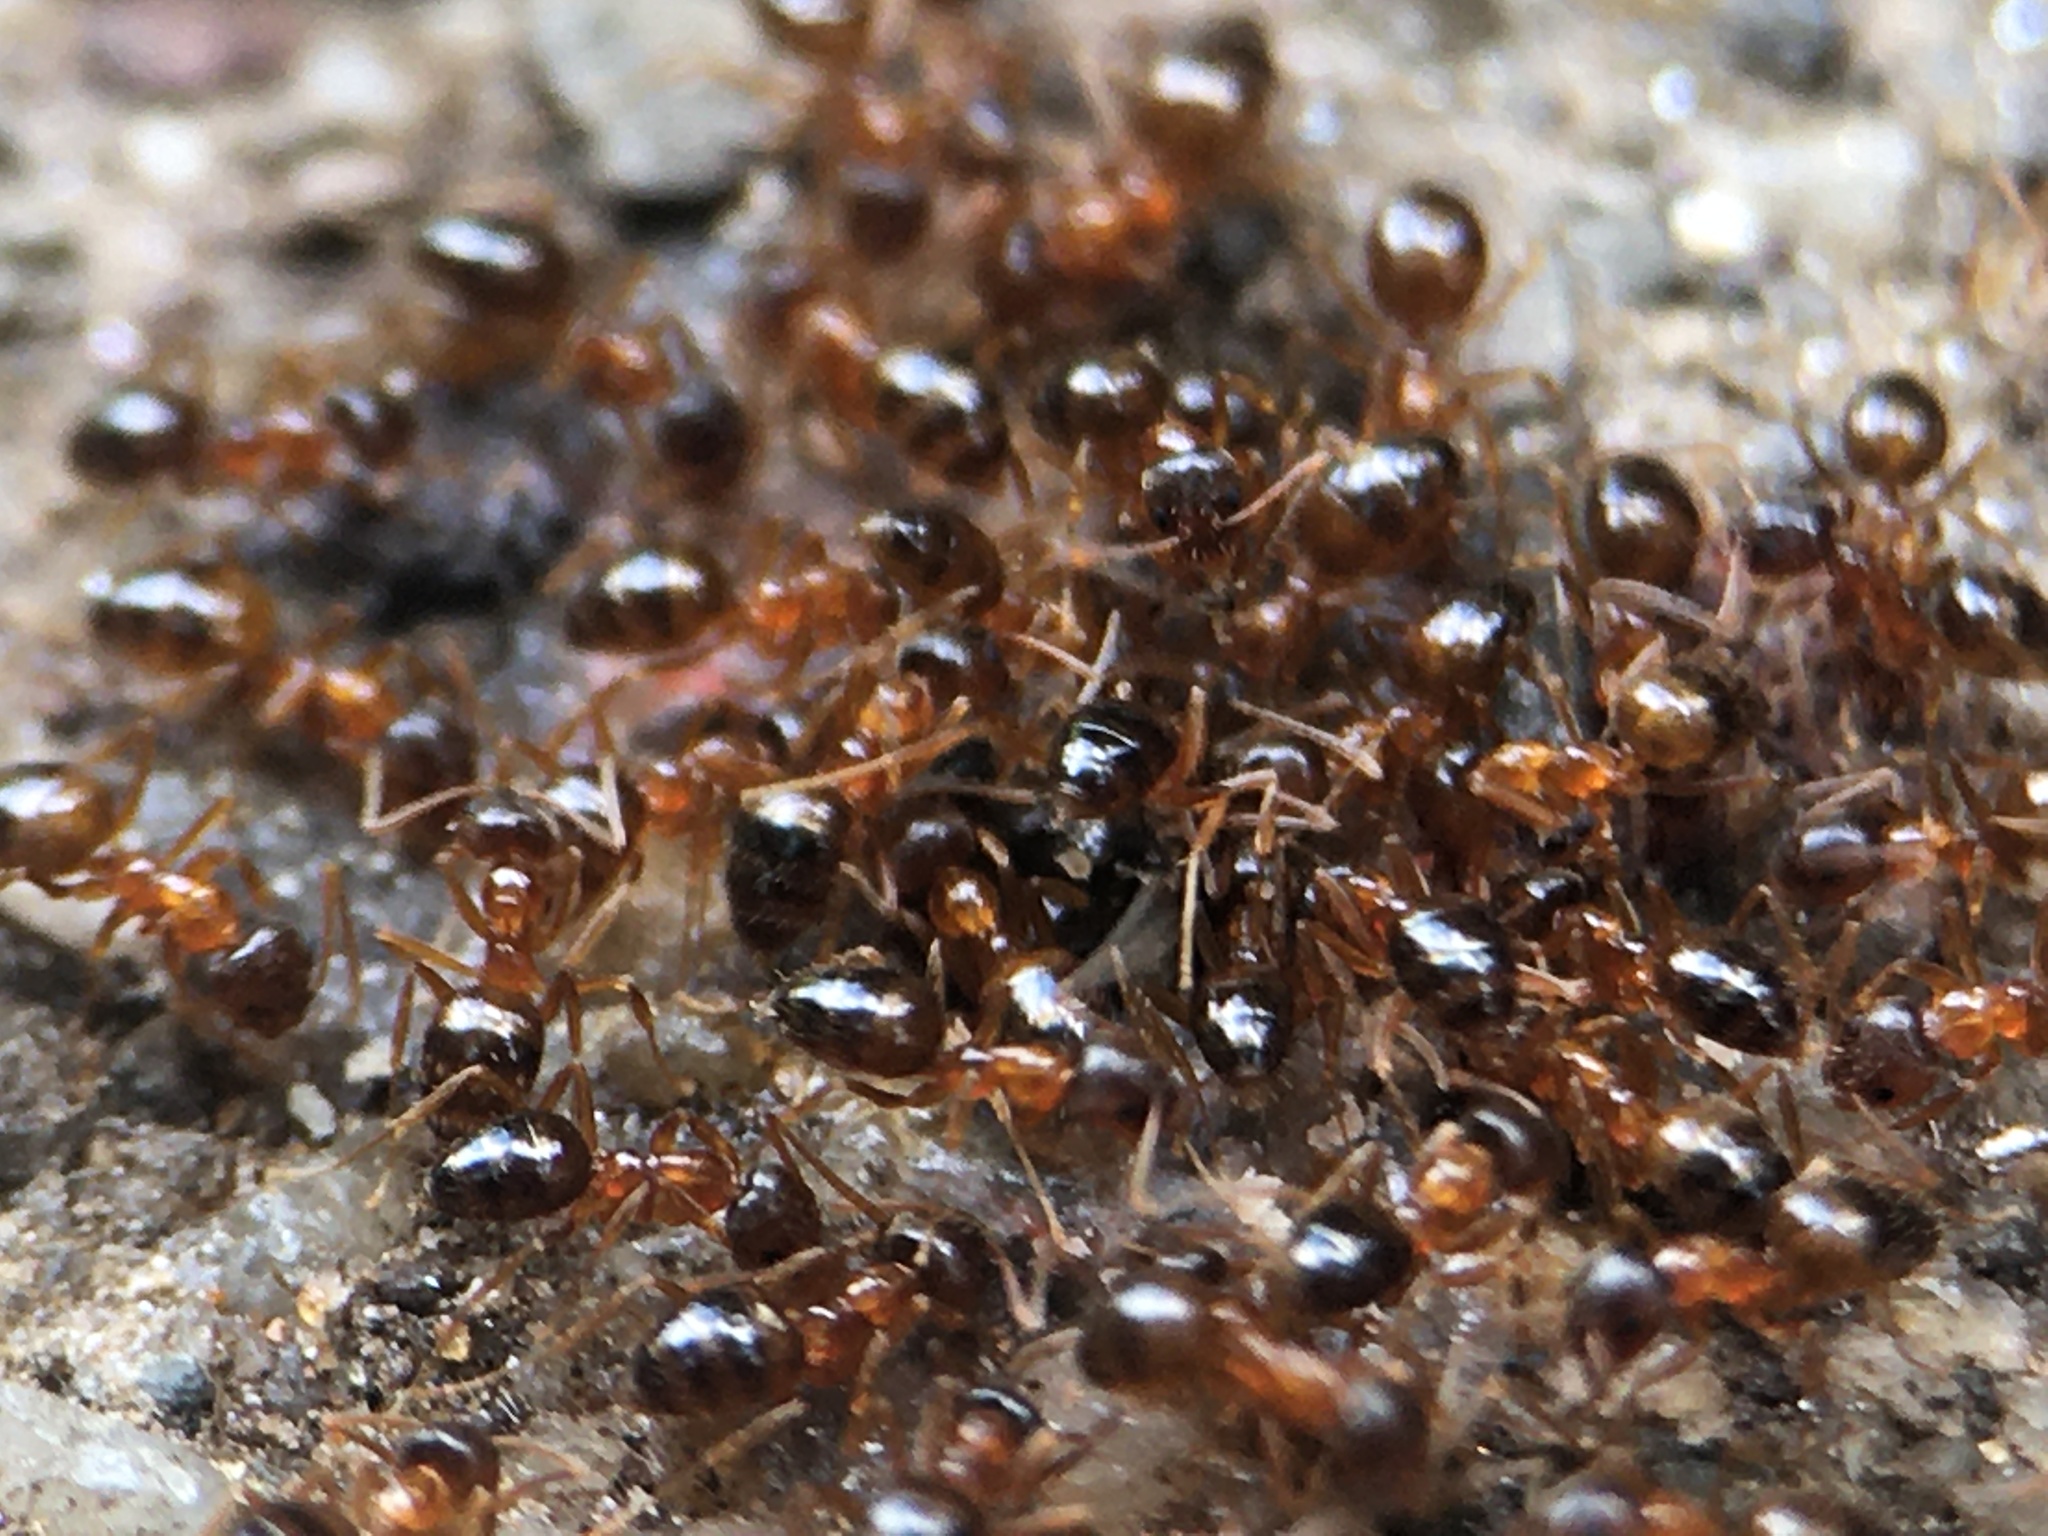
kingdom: Animalia
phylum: Arthropoda
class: Insecta
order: Hymenoptera
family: Formicidae
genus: Paratrechina
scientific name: Paratrechina flavipes
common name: Eastern asian formicine ant
